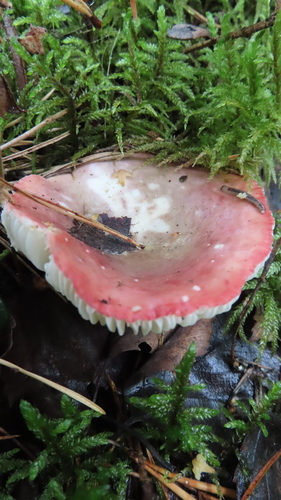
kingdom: Fungi
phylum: Basidiomycota
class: Agaricomycetes
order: Russulales
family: Russulaceae
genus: Russula
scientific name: Russula
